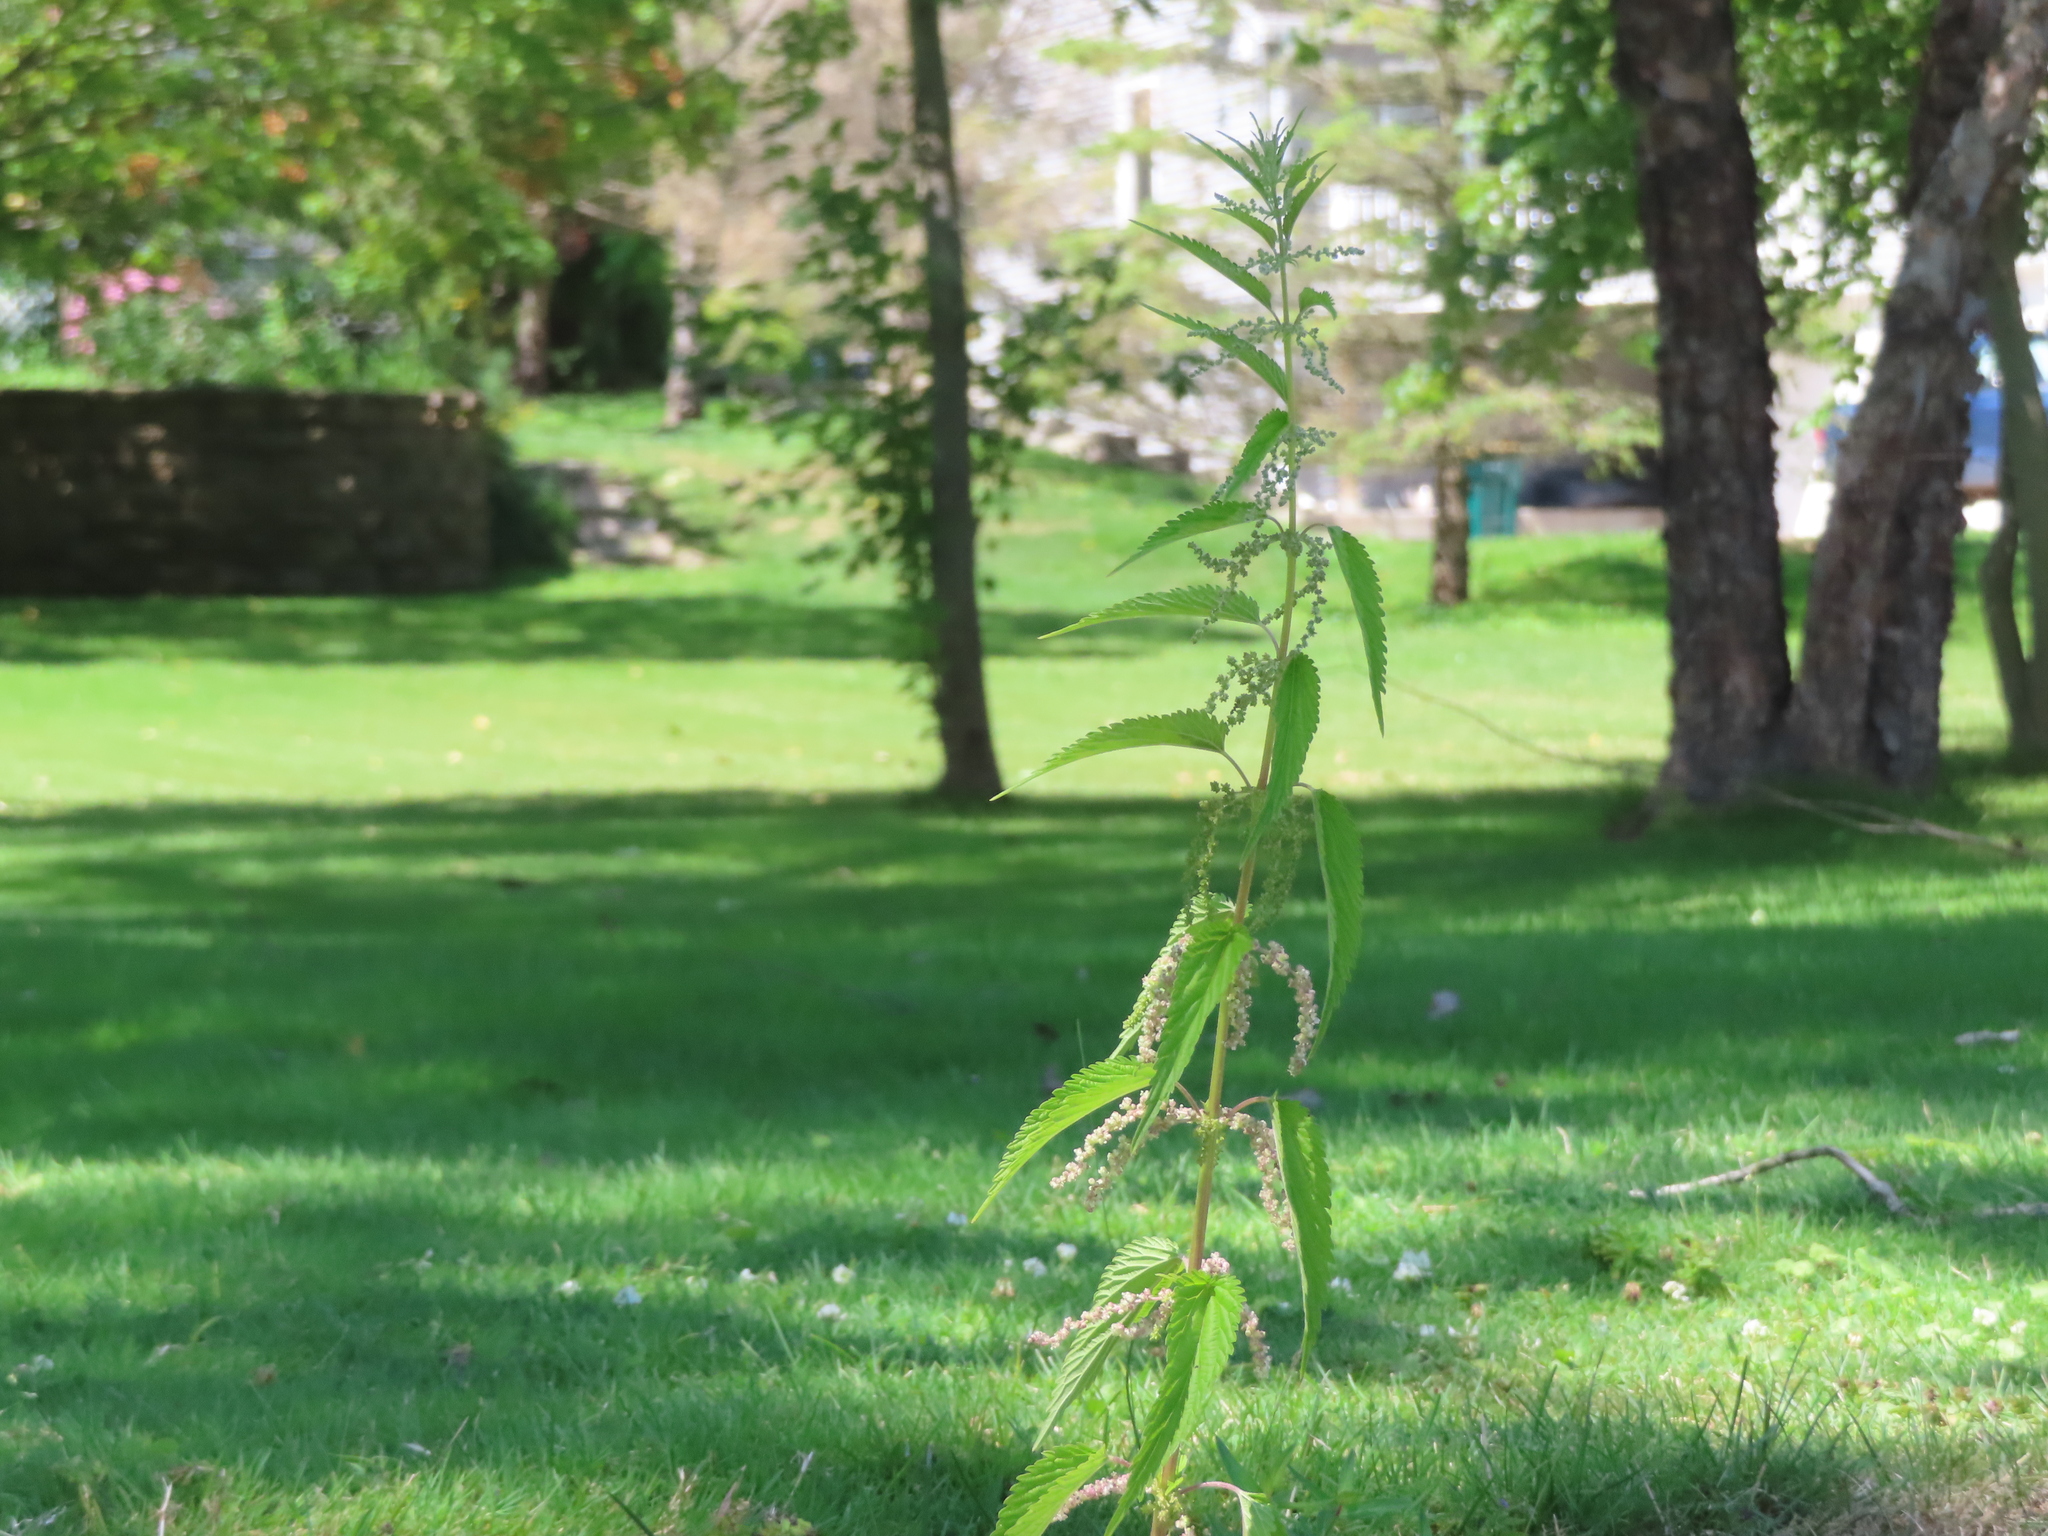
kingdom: Plantae
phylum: Tracheophyta
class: Magnoliopsida
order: Rosales
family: Urticaceae
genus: Urtica
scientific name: Urtica gracilis
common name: Slender stinging nettle
